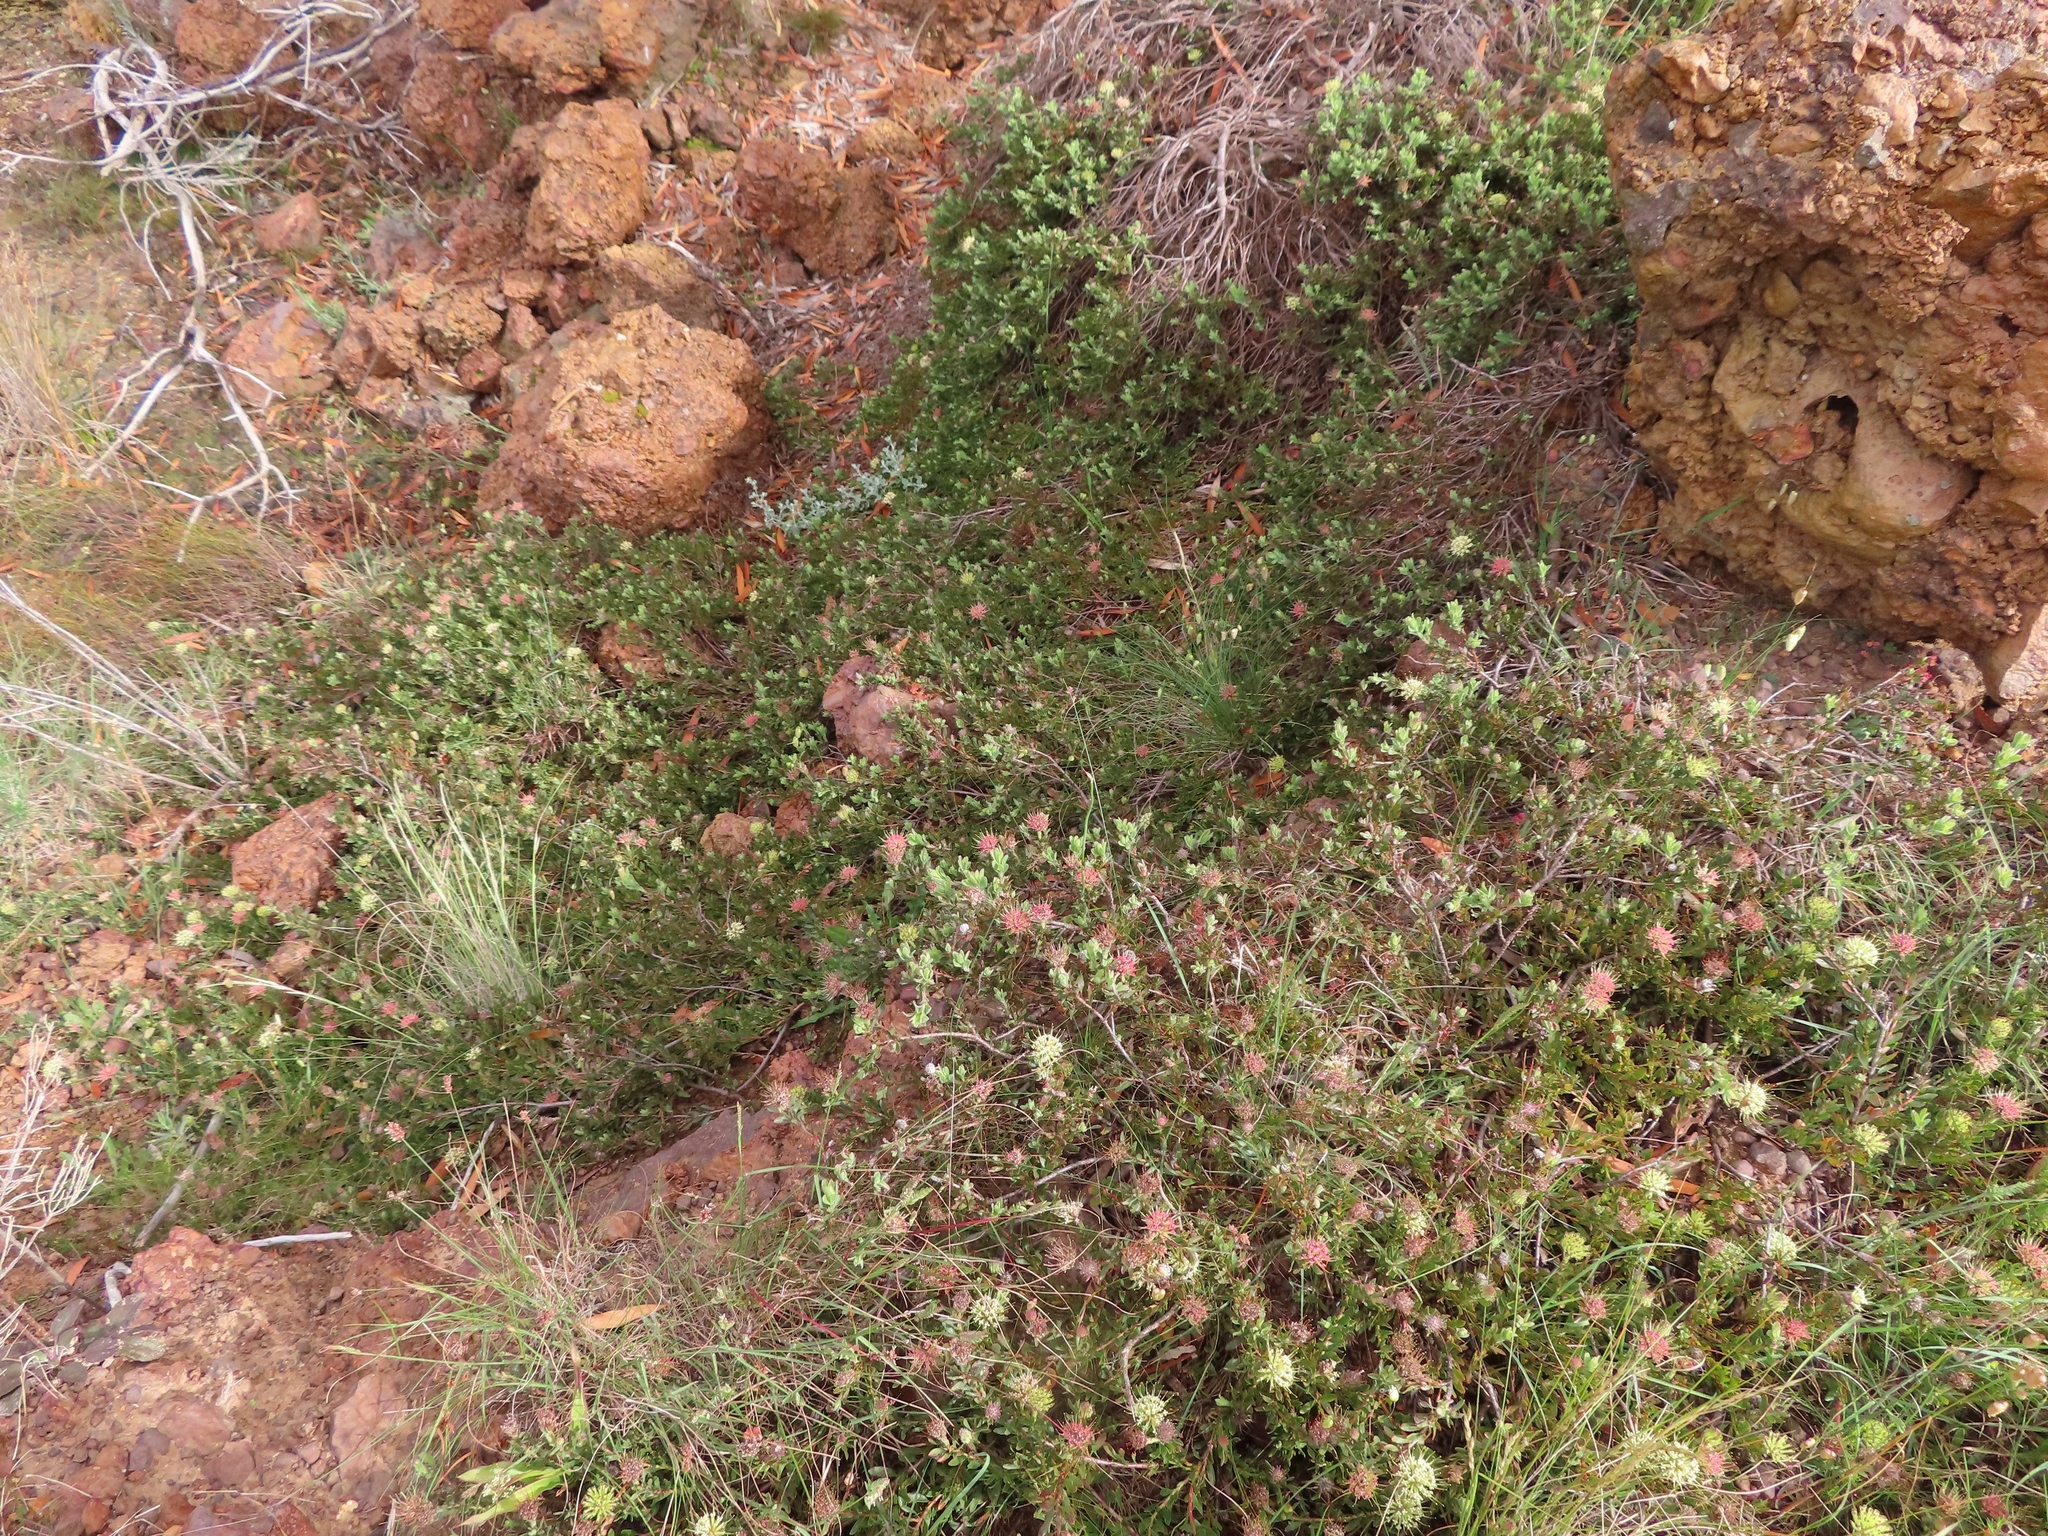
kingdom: Plantae
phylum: Tracheophyta
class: Magnoliopsida
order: Proteales
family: Proteaceae
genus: Leucospermum
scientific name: Leucospermum heterophyllum
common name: Trident pincushion
